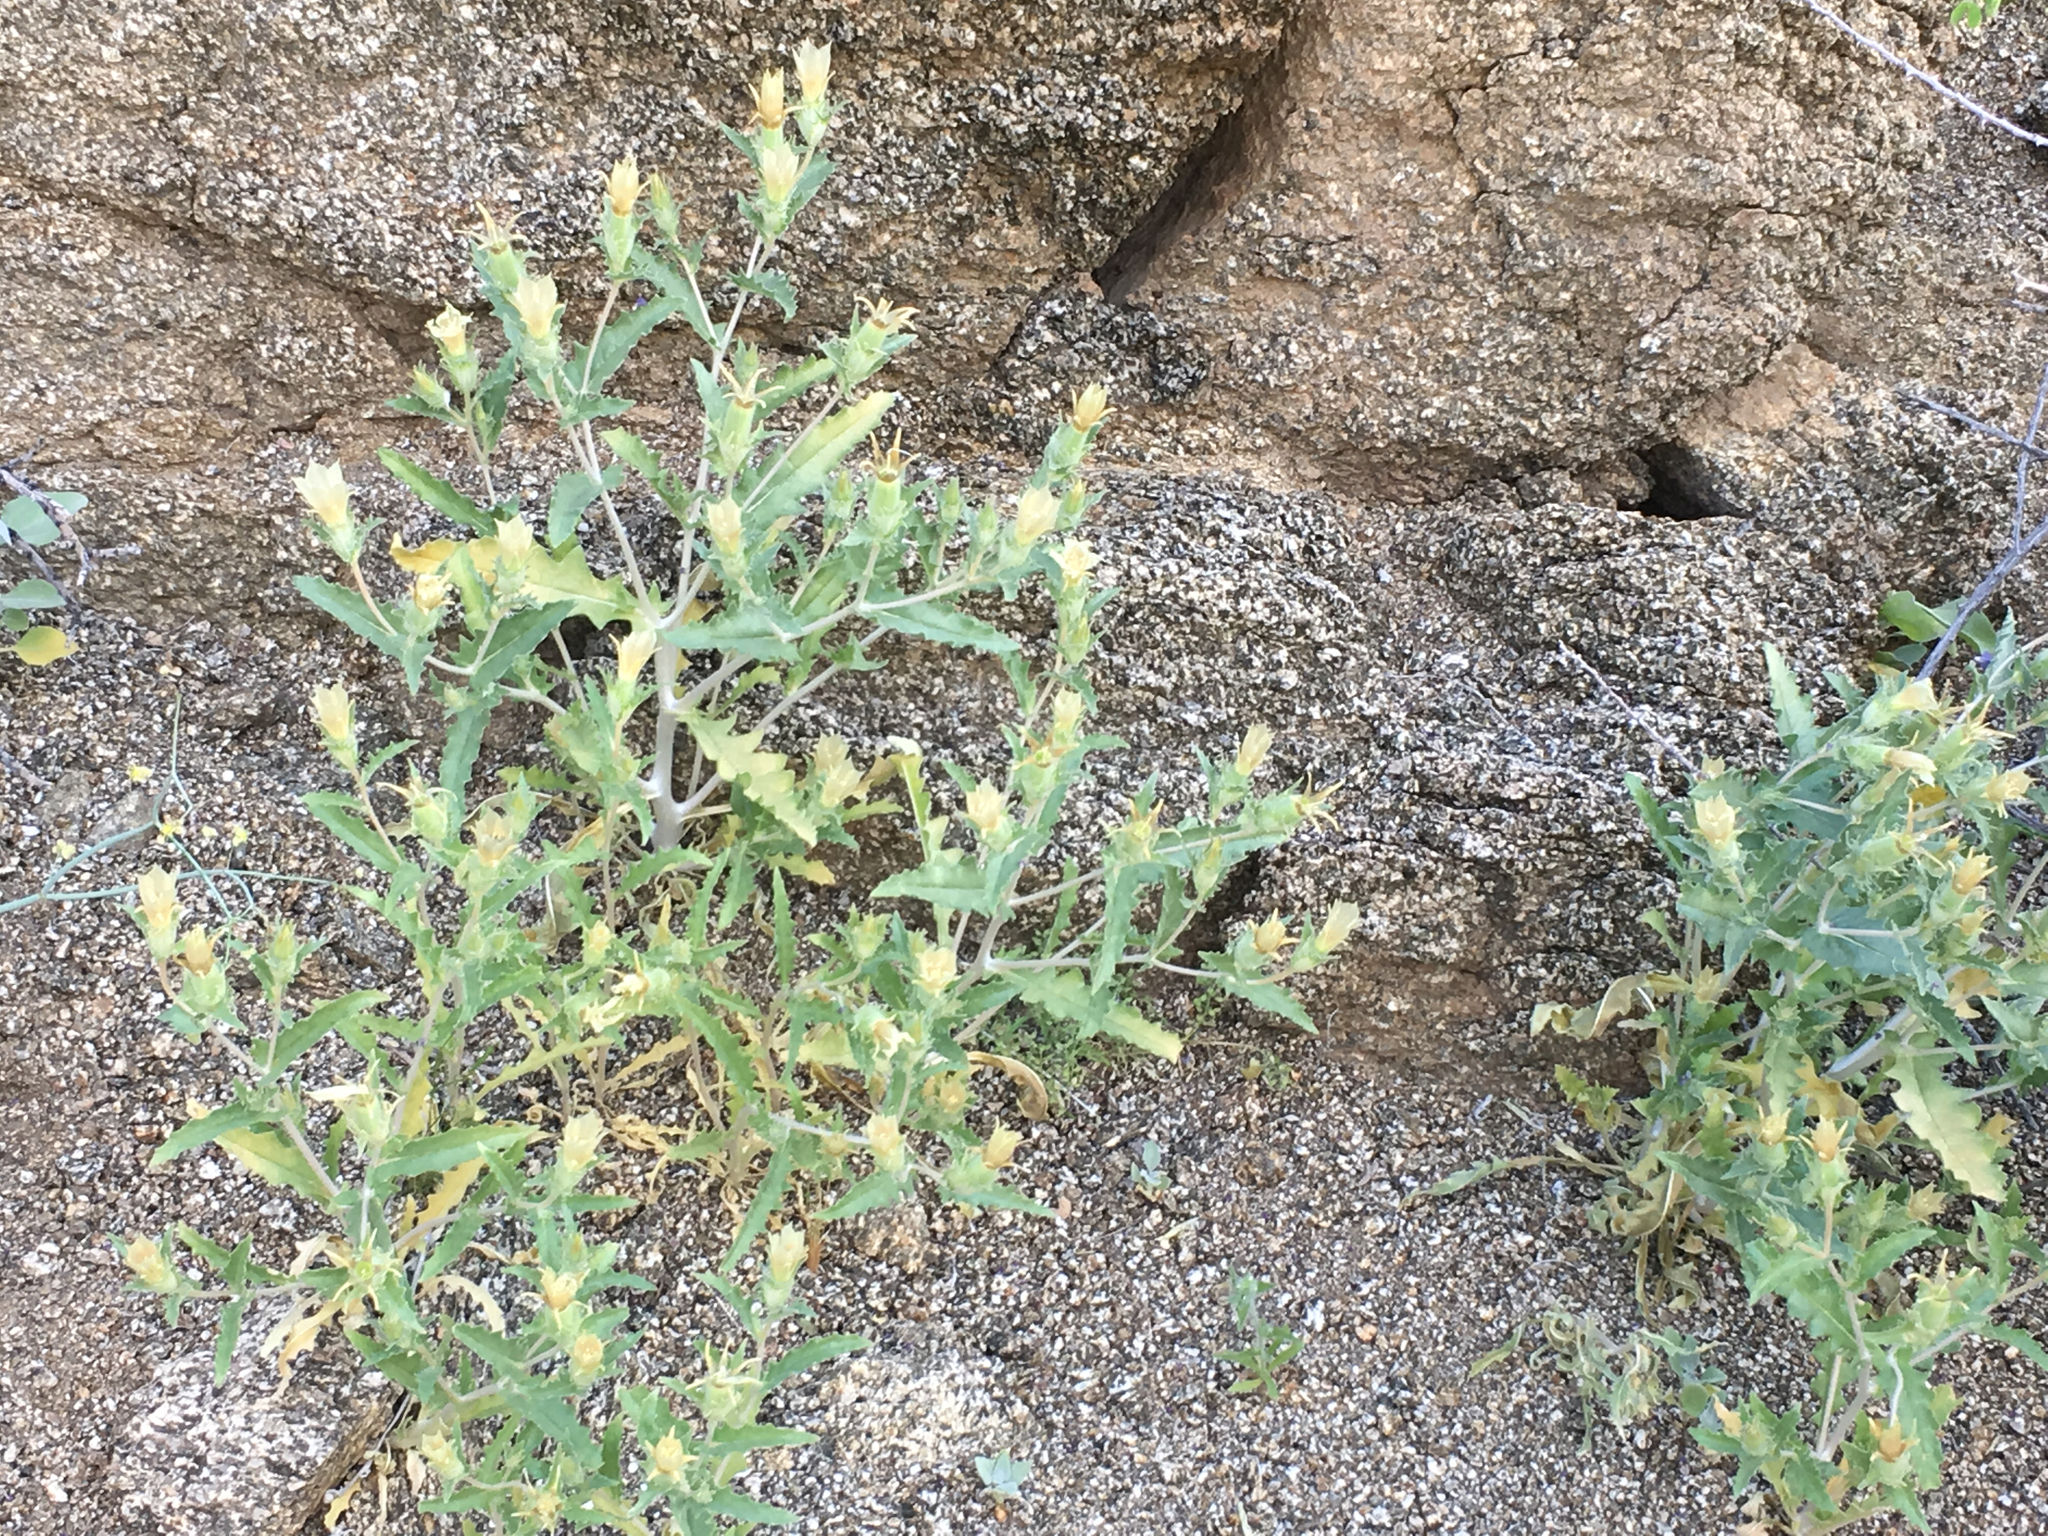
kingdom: Plantae
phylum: Tracheophyta
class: Magnoliopsida
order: Cornales
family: Loasaceae
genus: Mentzelia
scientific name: Mentzelia involucrata
